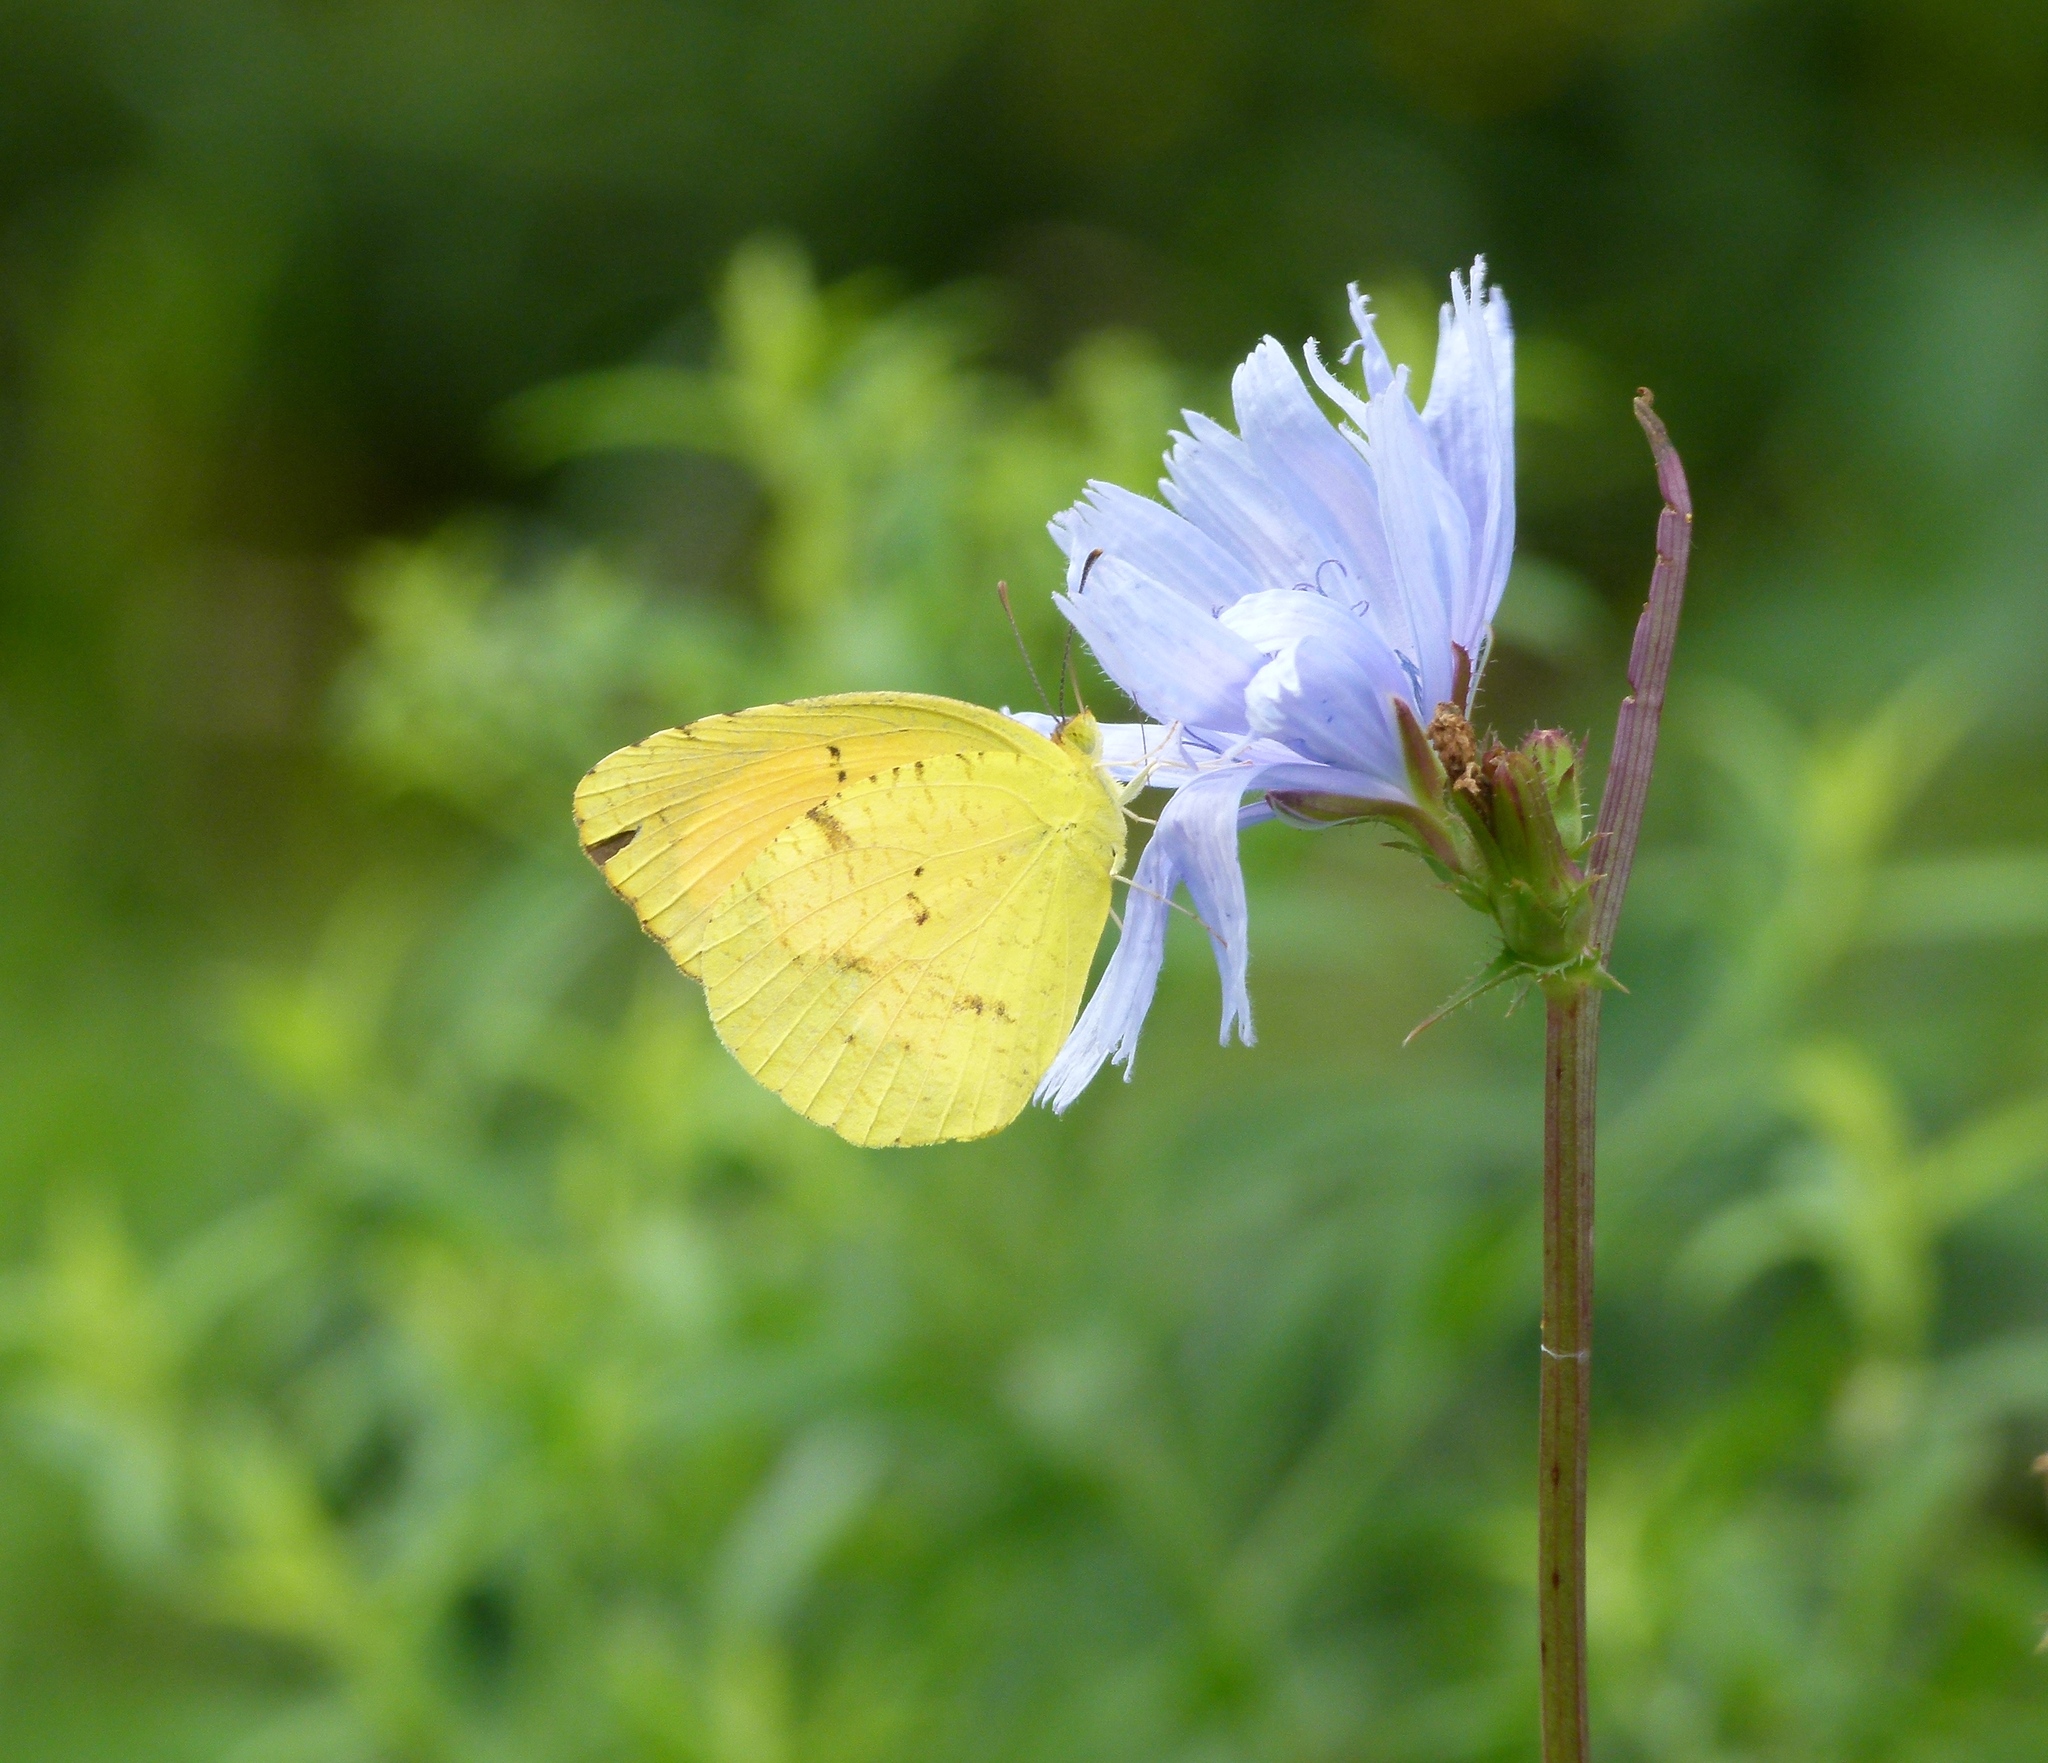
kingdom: Animalia
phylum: Arthropoda
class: Insecta
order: Lepidoptera
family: Pieridae
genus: Abaeis
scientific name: Abaeis nicippe
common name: Sleepy orange
